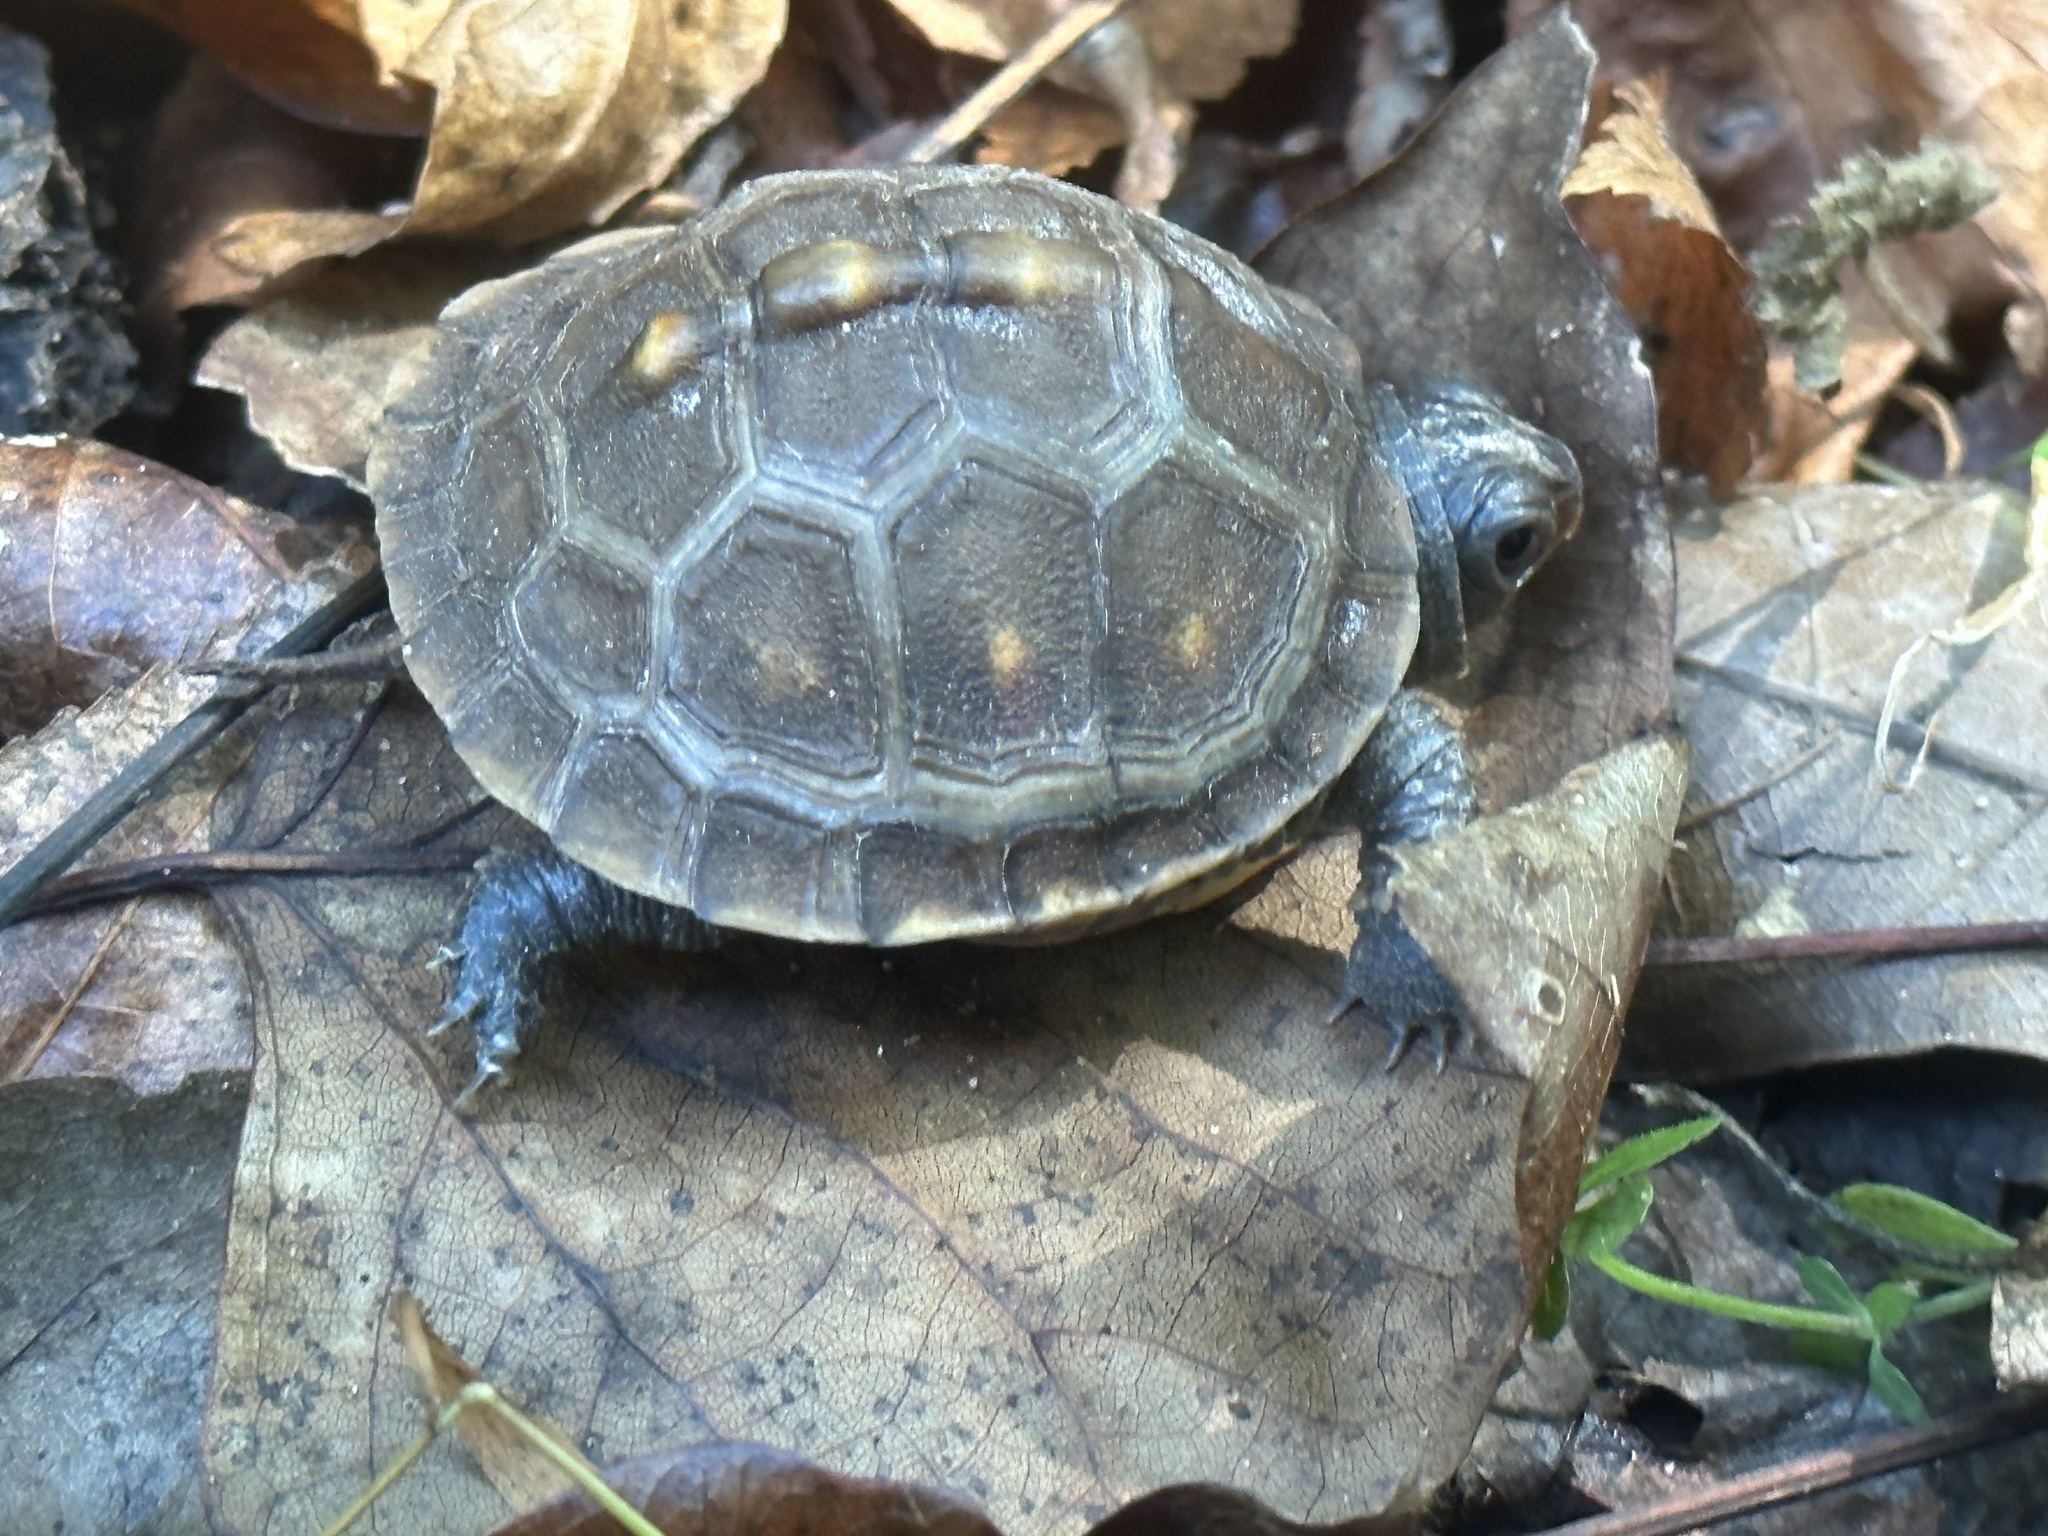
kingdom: Animalia
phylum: Chordata
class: Testudines
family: Emydidae
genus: Terrapene
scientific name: Terrapene carolina
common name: Common box turtle
